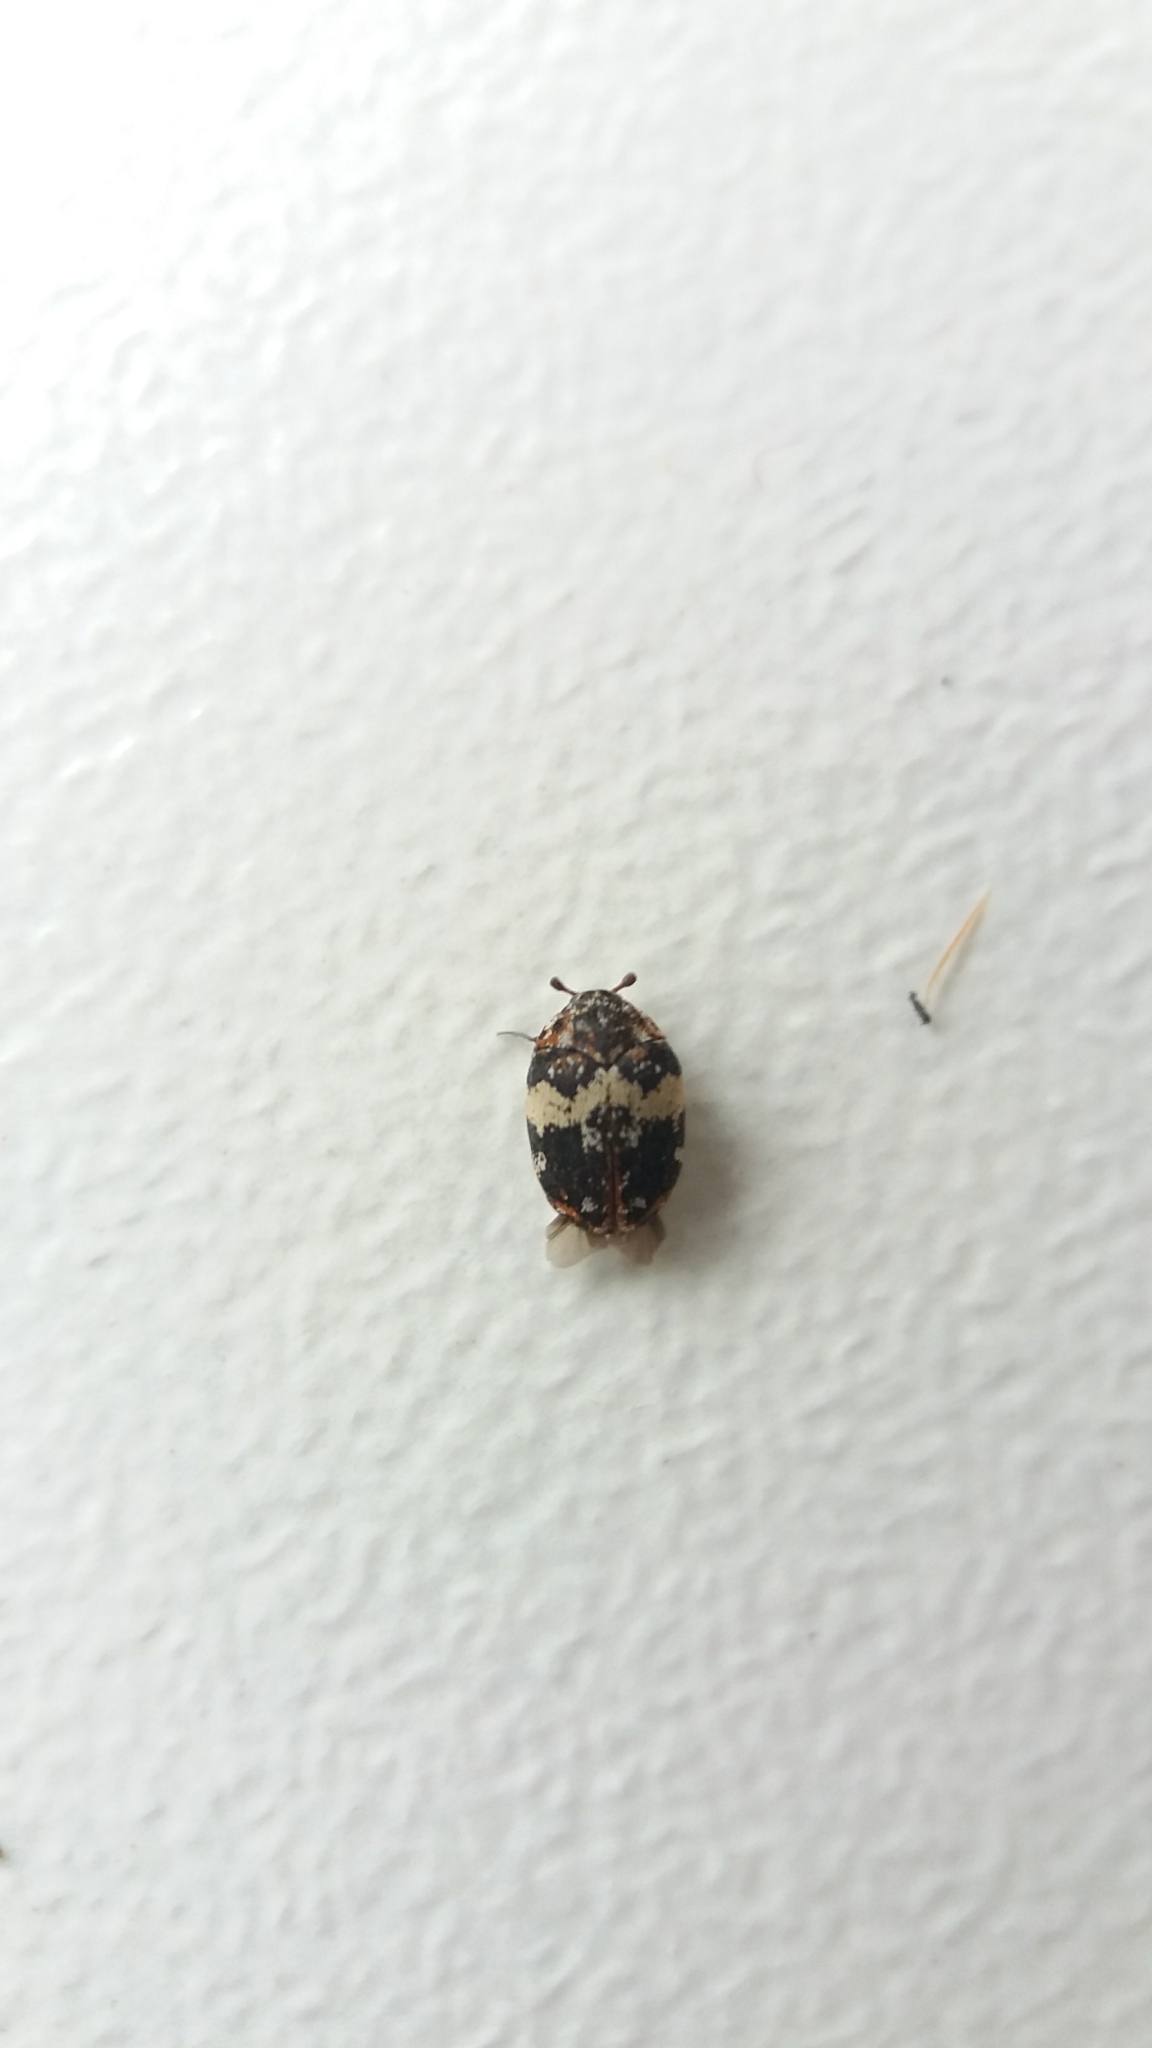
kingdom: Animalia
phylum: Arthropoda
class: Insecta
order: Coleoptera
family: Dermestidae
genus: Anthrenus
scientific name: Anthrenus pimpinellae
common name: Dermestid beetle
